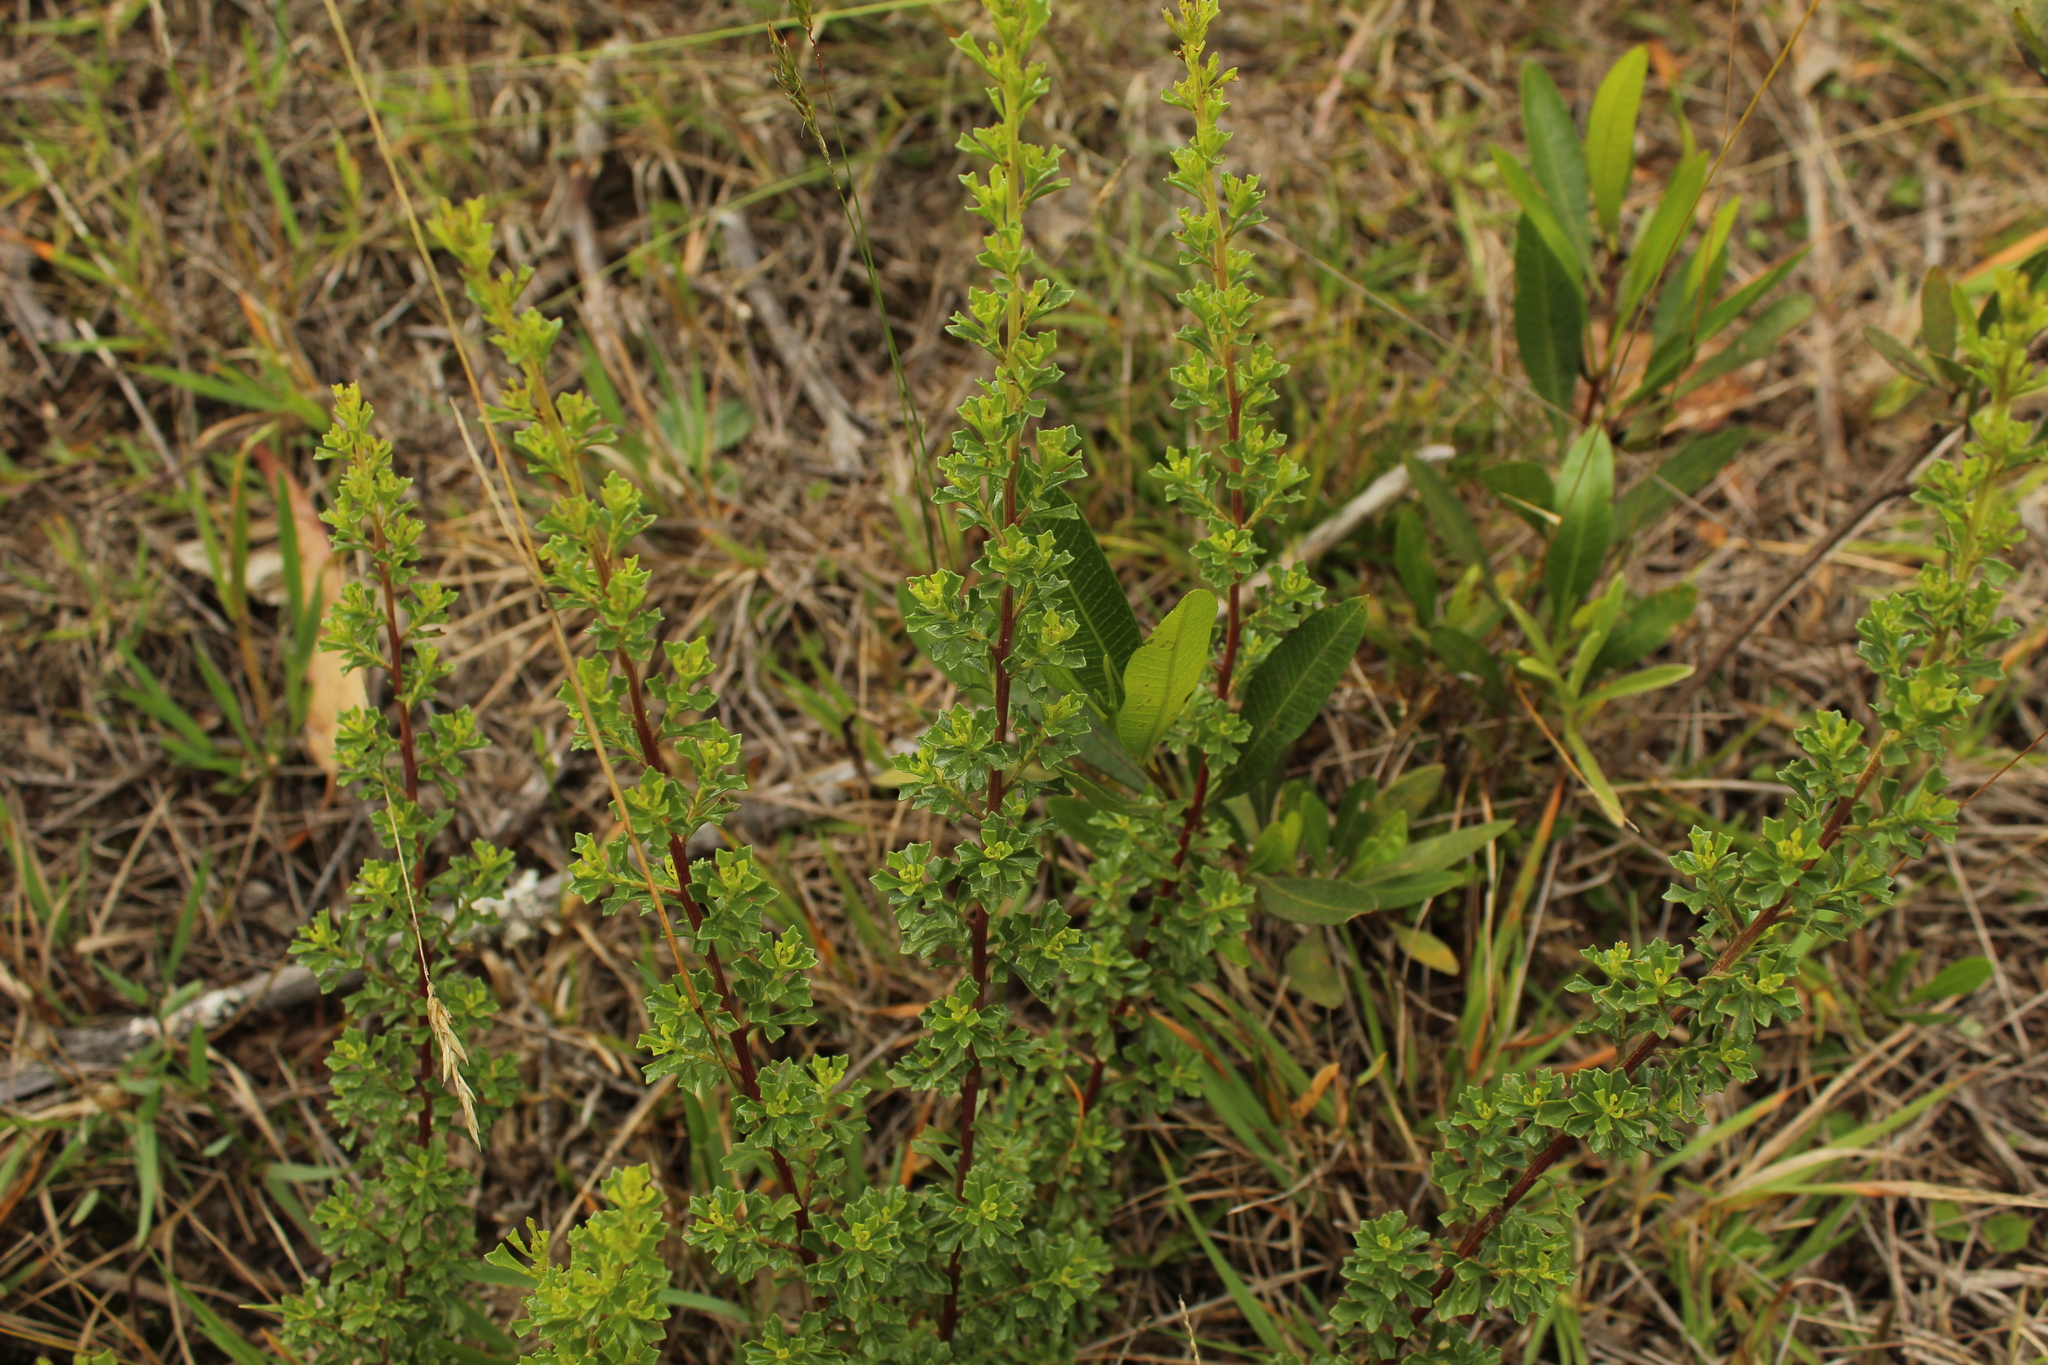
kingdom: Plantae
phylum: Tracheophyta
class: Magnoliopsida
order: Asterales
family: Asteraceae
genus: Baccharis
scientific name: Baccharis tricuneata
